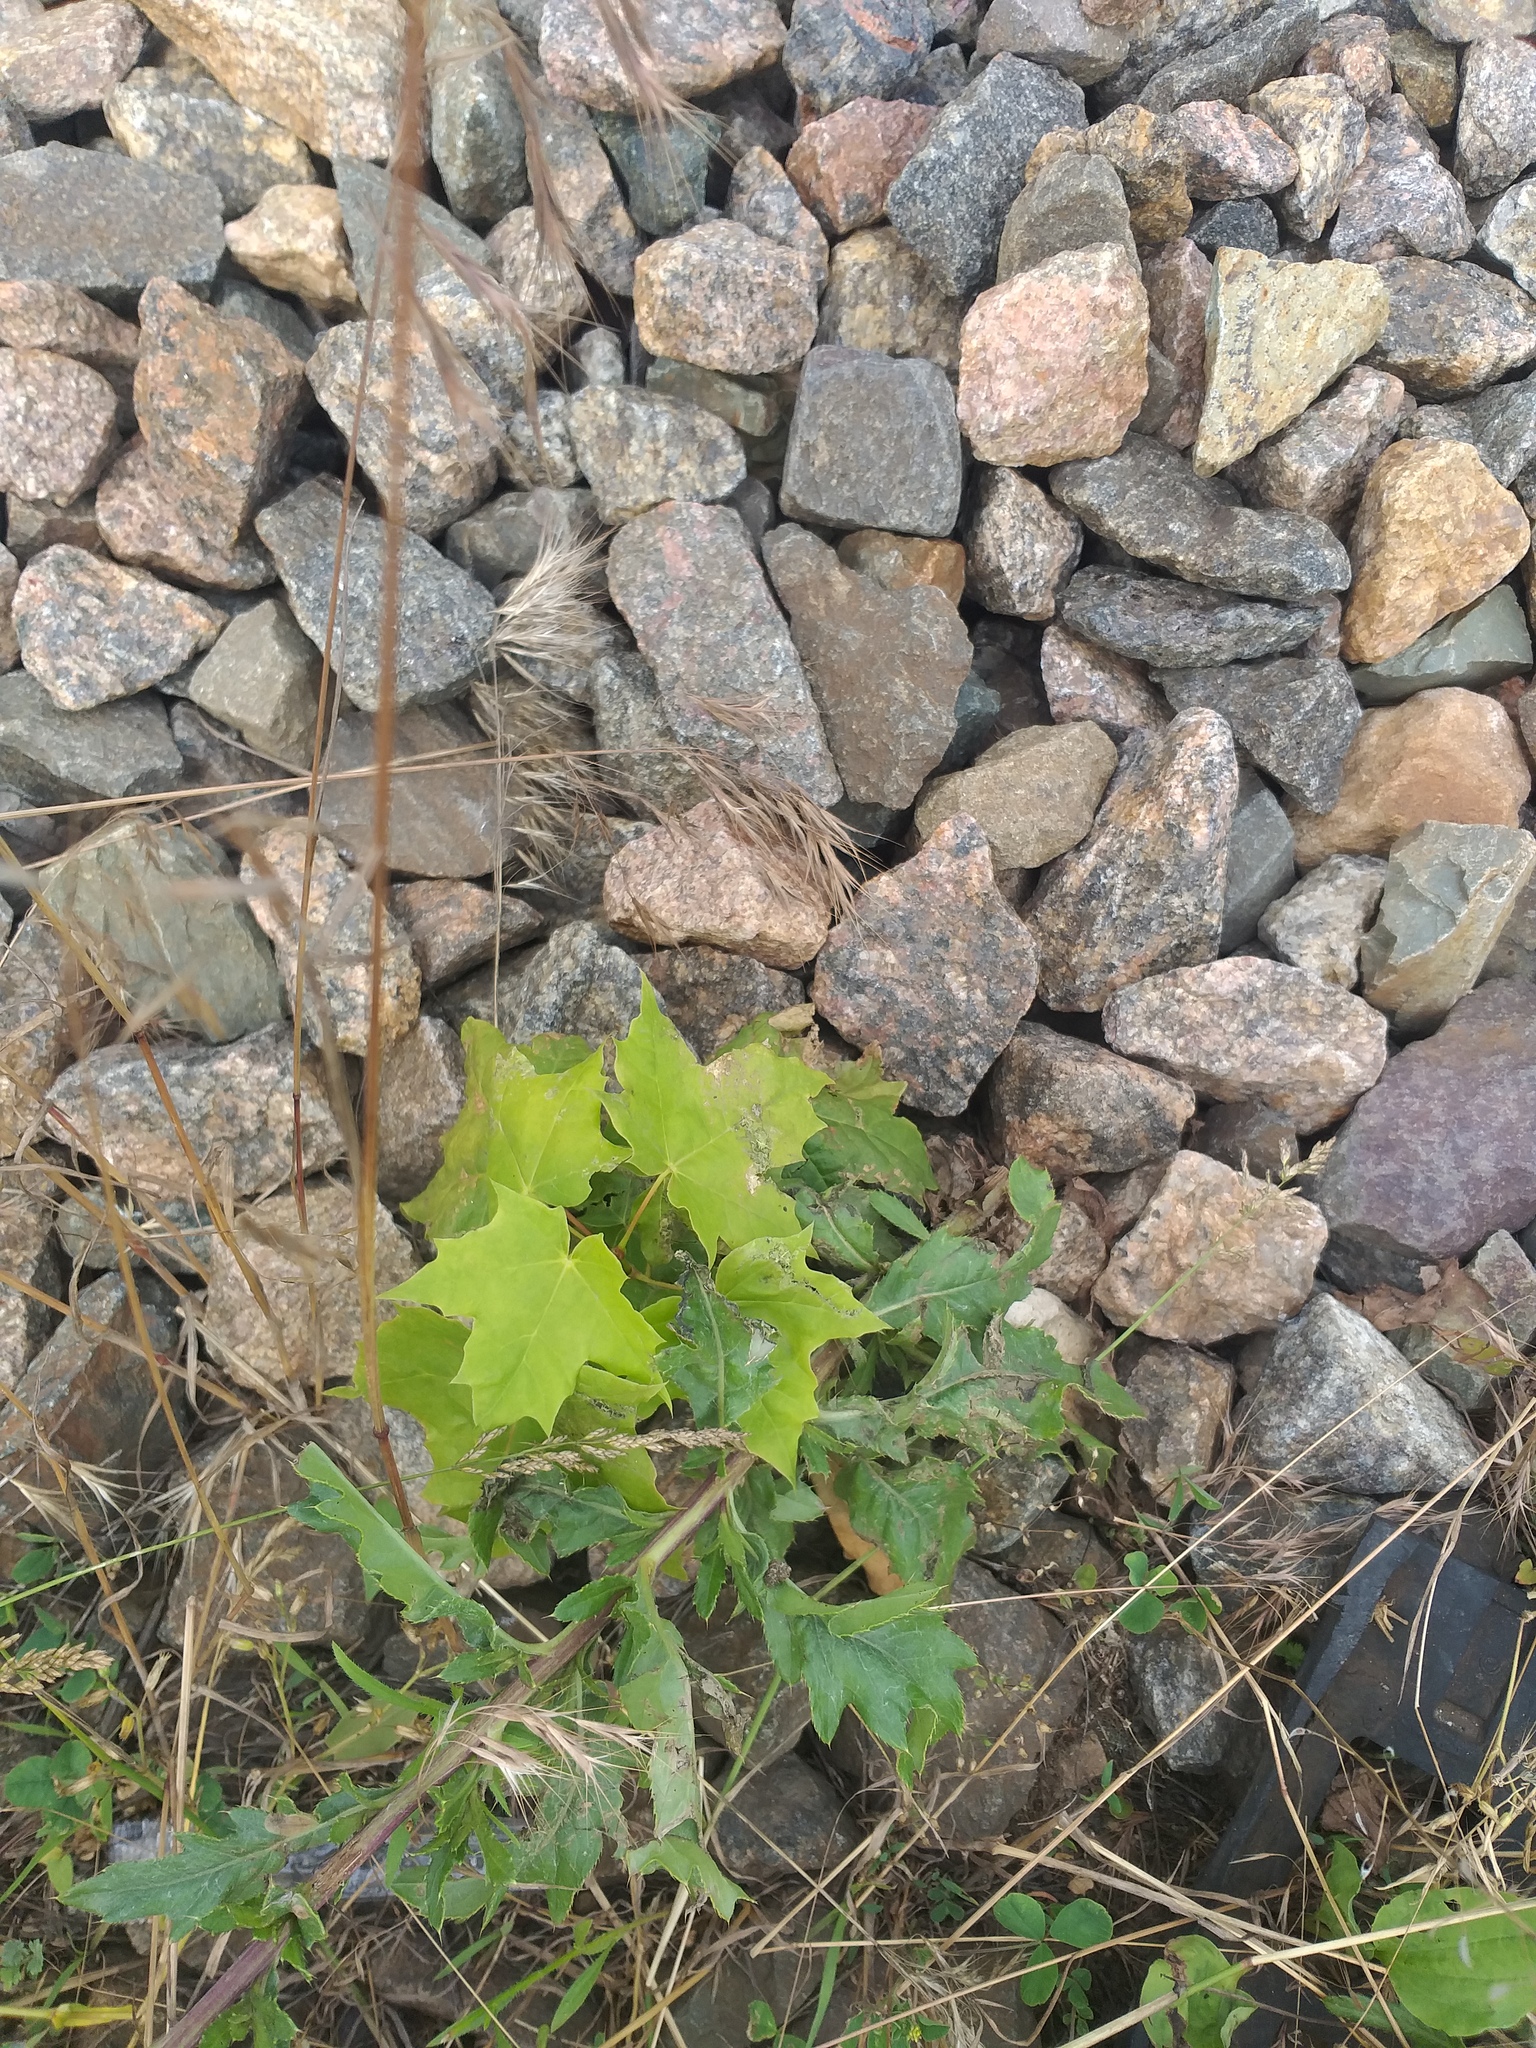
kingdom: Plantae
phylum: Tracheophyta
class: Magnoliopsida
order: Sapindales
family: Sapindaceae
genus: Acer
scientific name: Acer platanoides
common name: Norway maple
